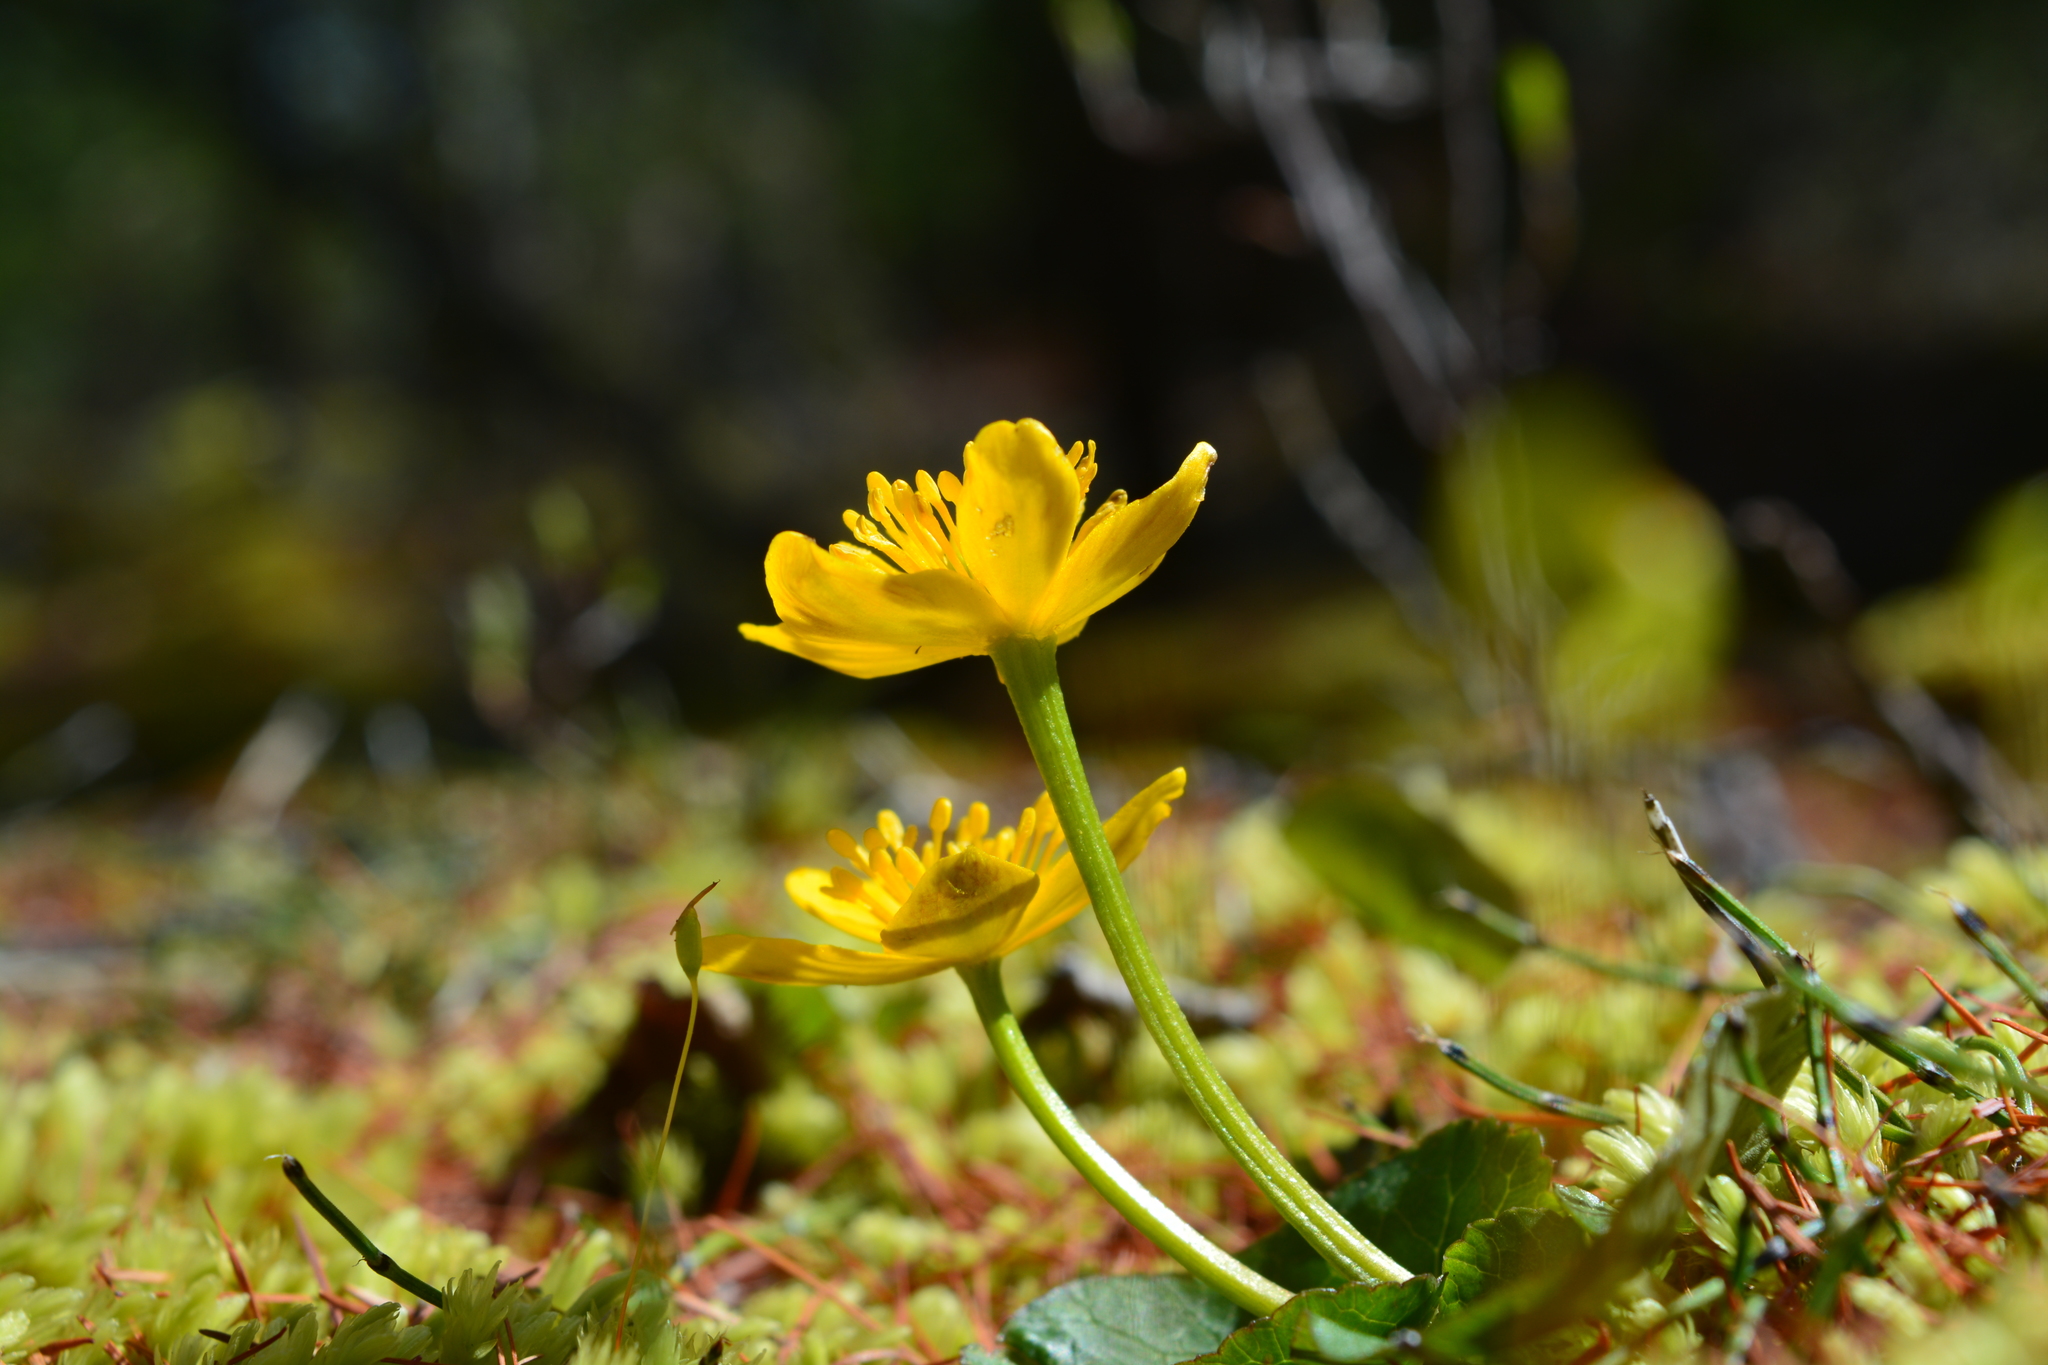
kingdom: Plantae
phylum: Tracheophyta
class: Magnoliopsida
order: Ranunculales
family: Ranunculaceae
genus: Caltha
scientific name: Caltha palustris
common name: Marsh marigold
